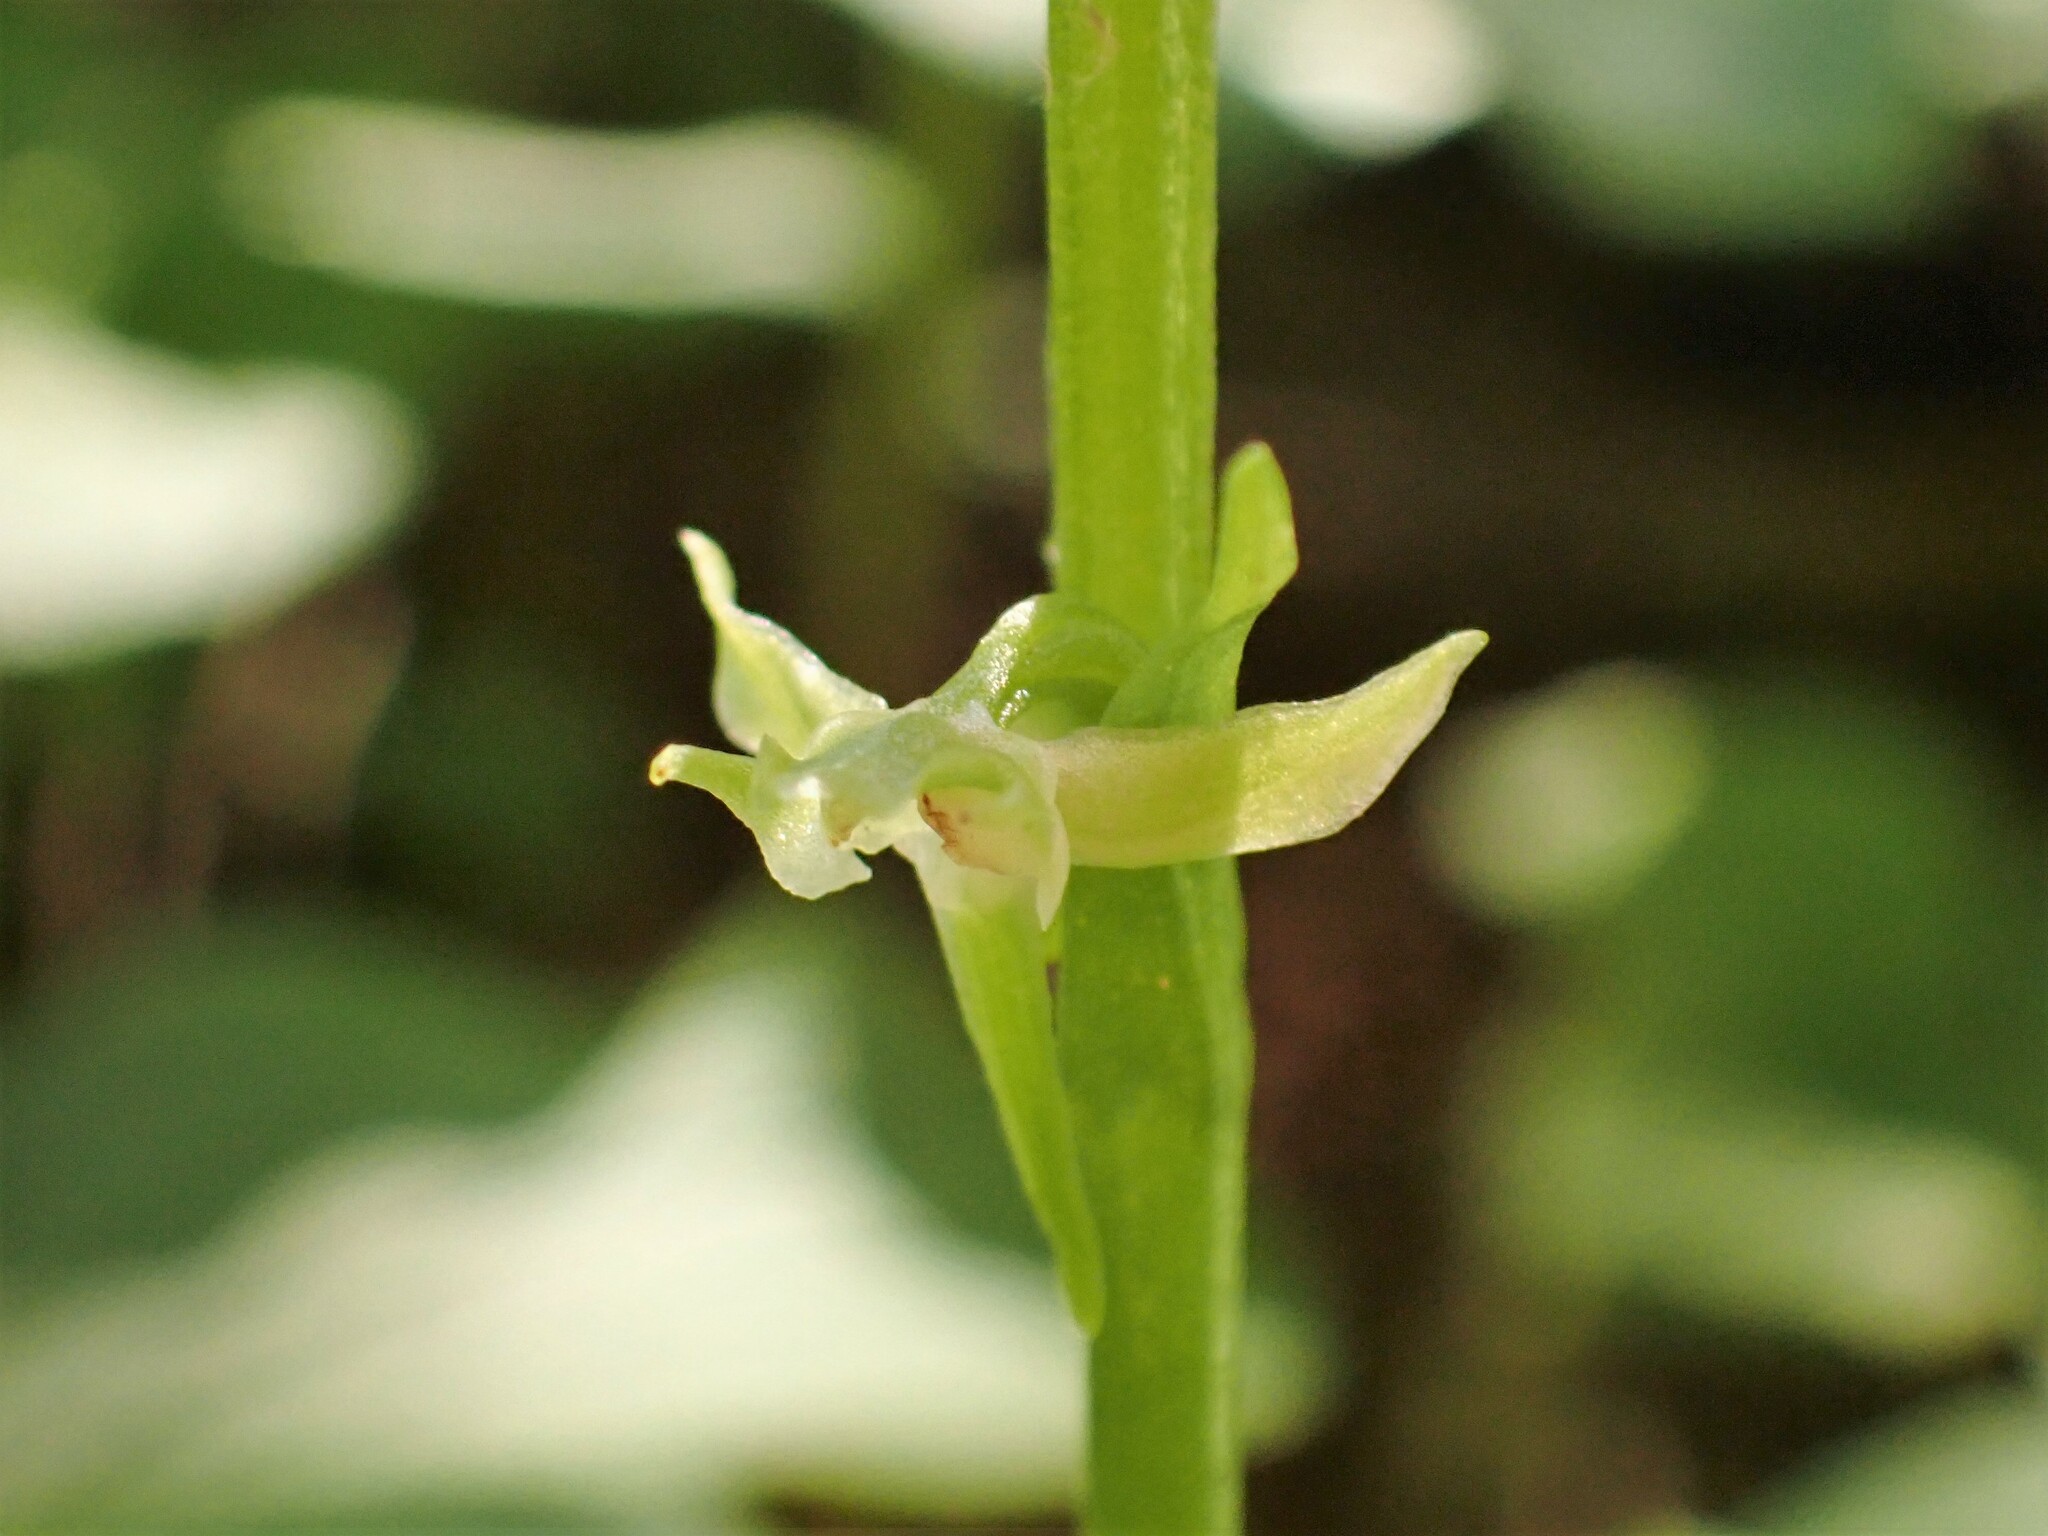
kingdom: Plantae
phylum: Tracheophyta
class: Liliopsida
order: Asparagales
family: Orchidaceae
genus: Platanthera
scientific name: Platanthera obtusata
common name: Blunt bog orchid
